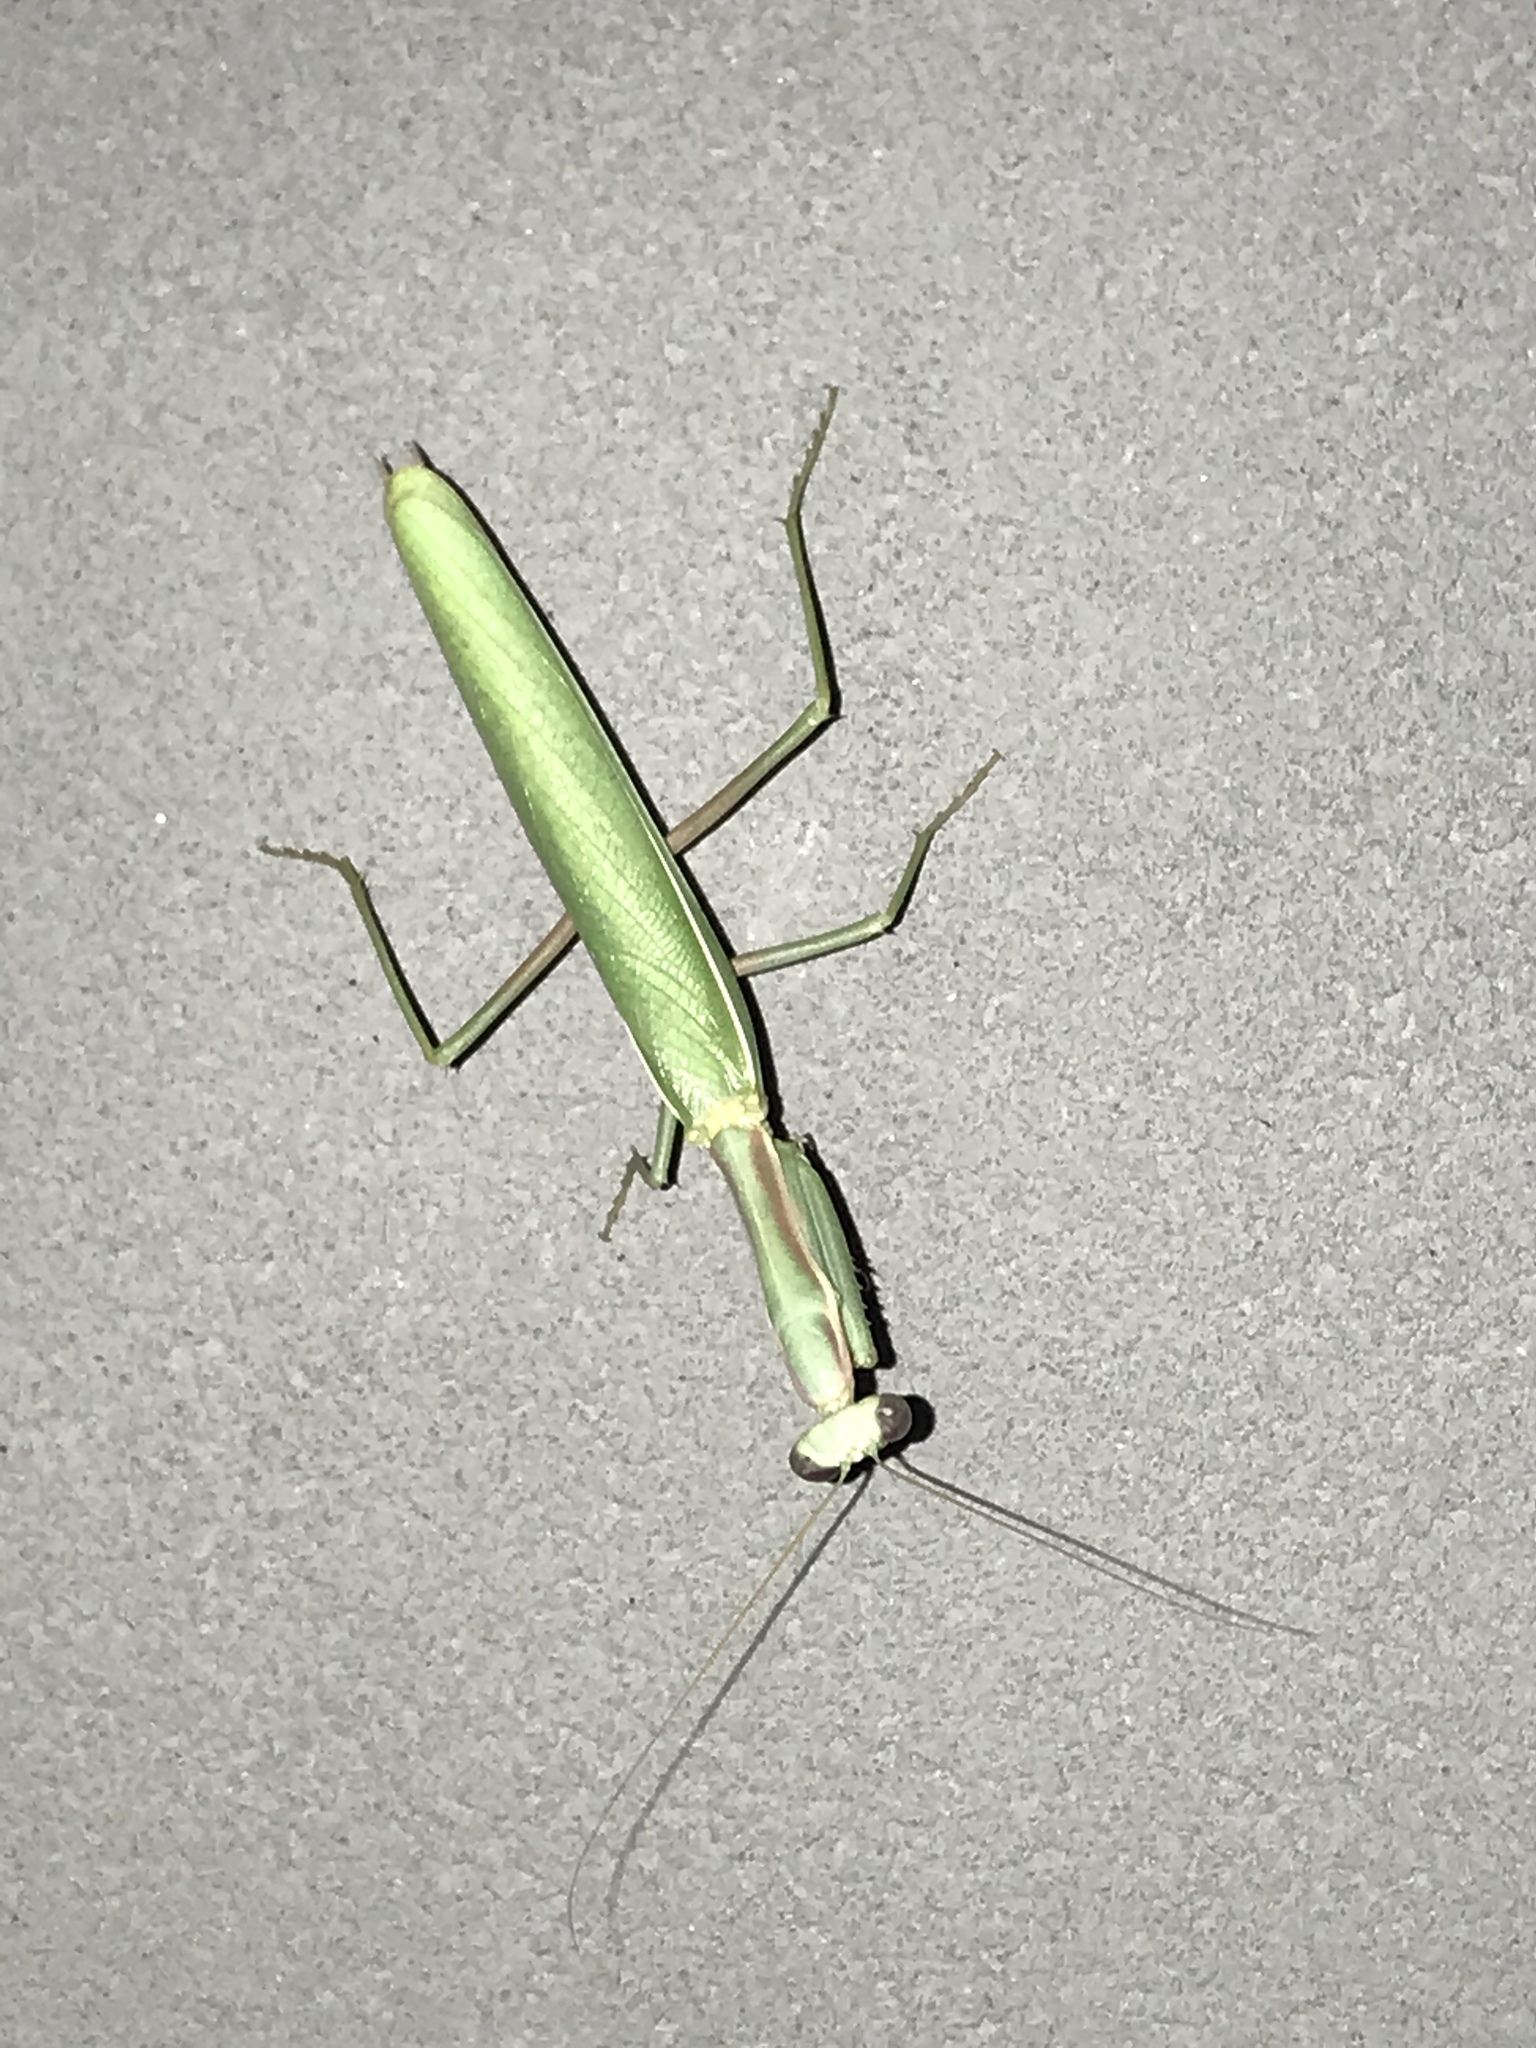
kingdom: Animalia
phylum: Arthropoda
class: Insecta
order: Mantodea
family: Eremiaphilidae
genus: Iris
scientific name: Iris oratoria
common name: Mediterranean mantis
